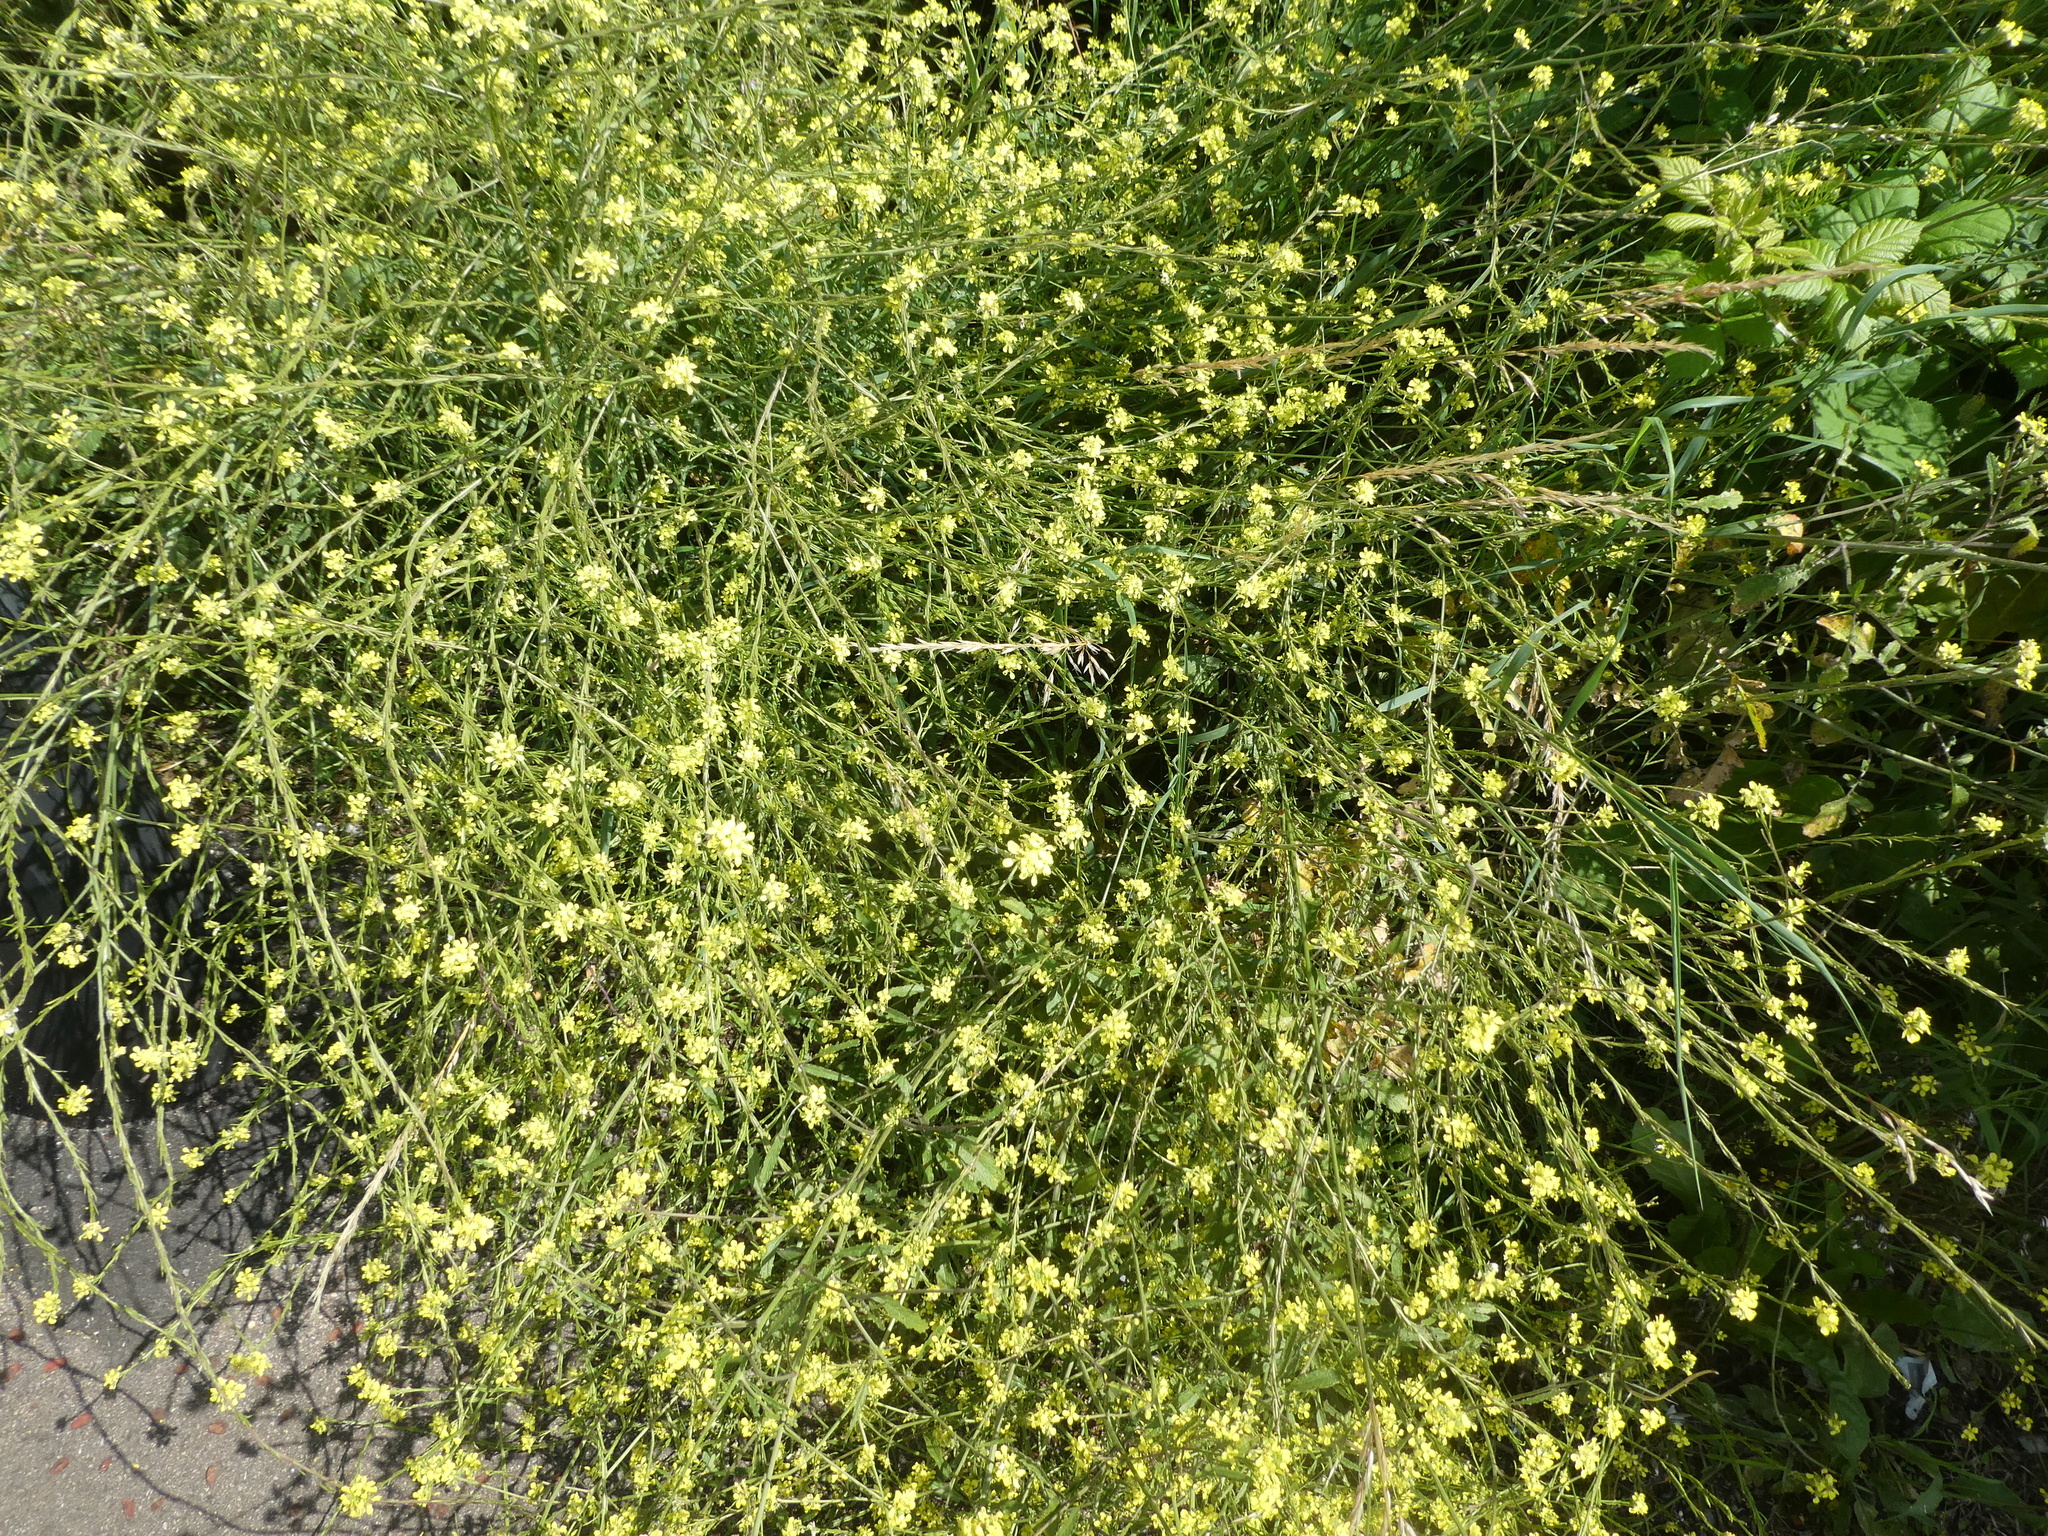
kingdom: Plantae
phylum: Tracheophyta
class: Magnoliopsida
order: Brassicales
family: Brassicaceae
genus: Hirschfeldia
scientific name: Hirschfeldia incana
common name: Hoary mustard
